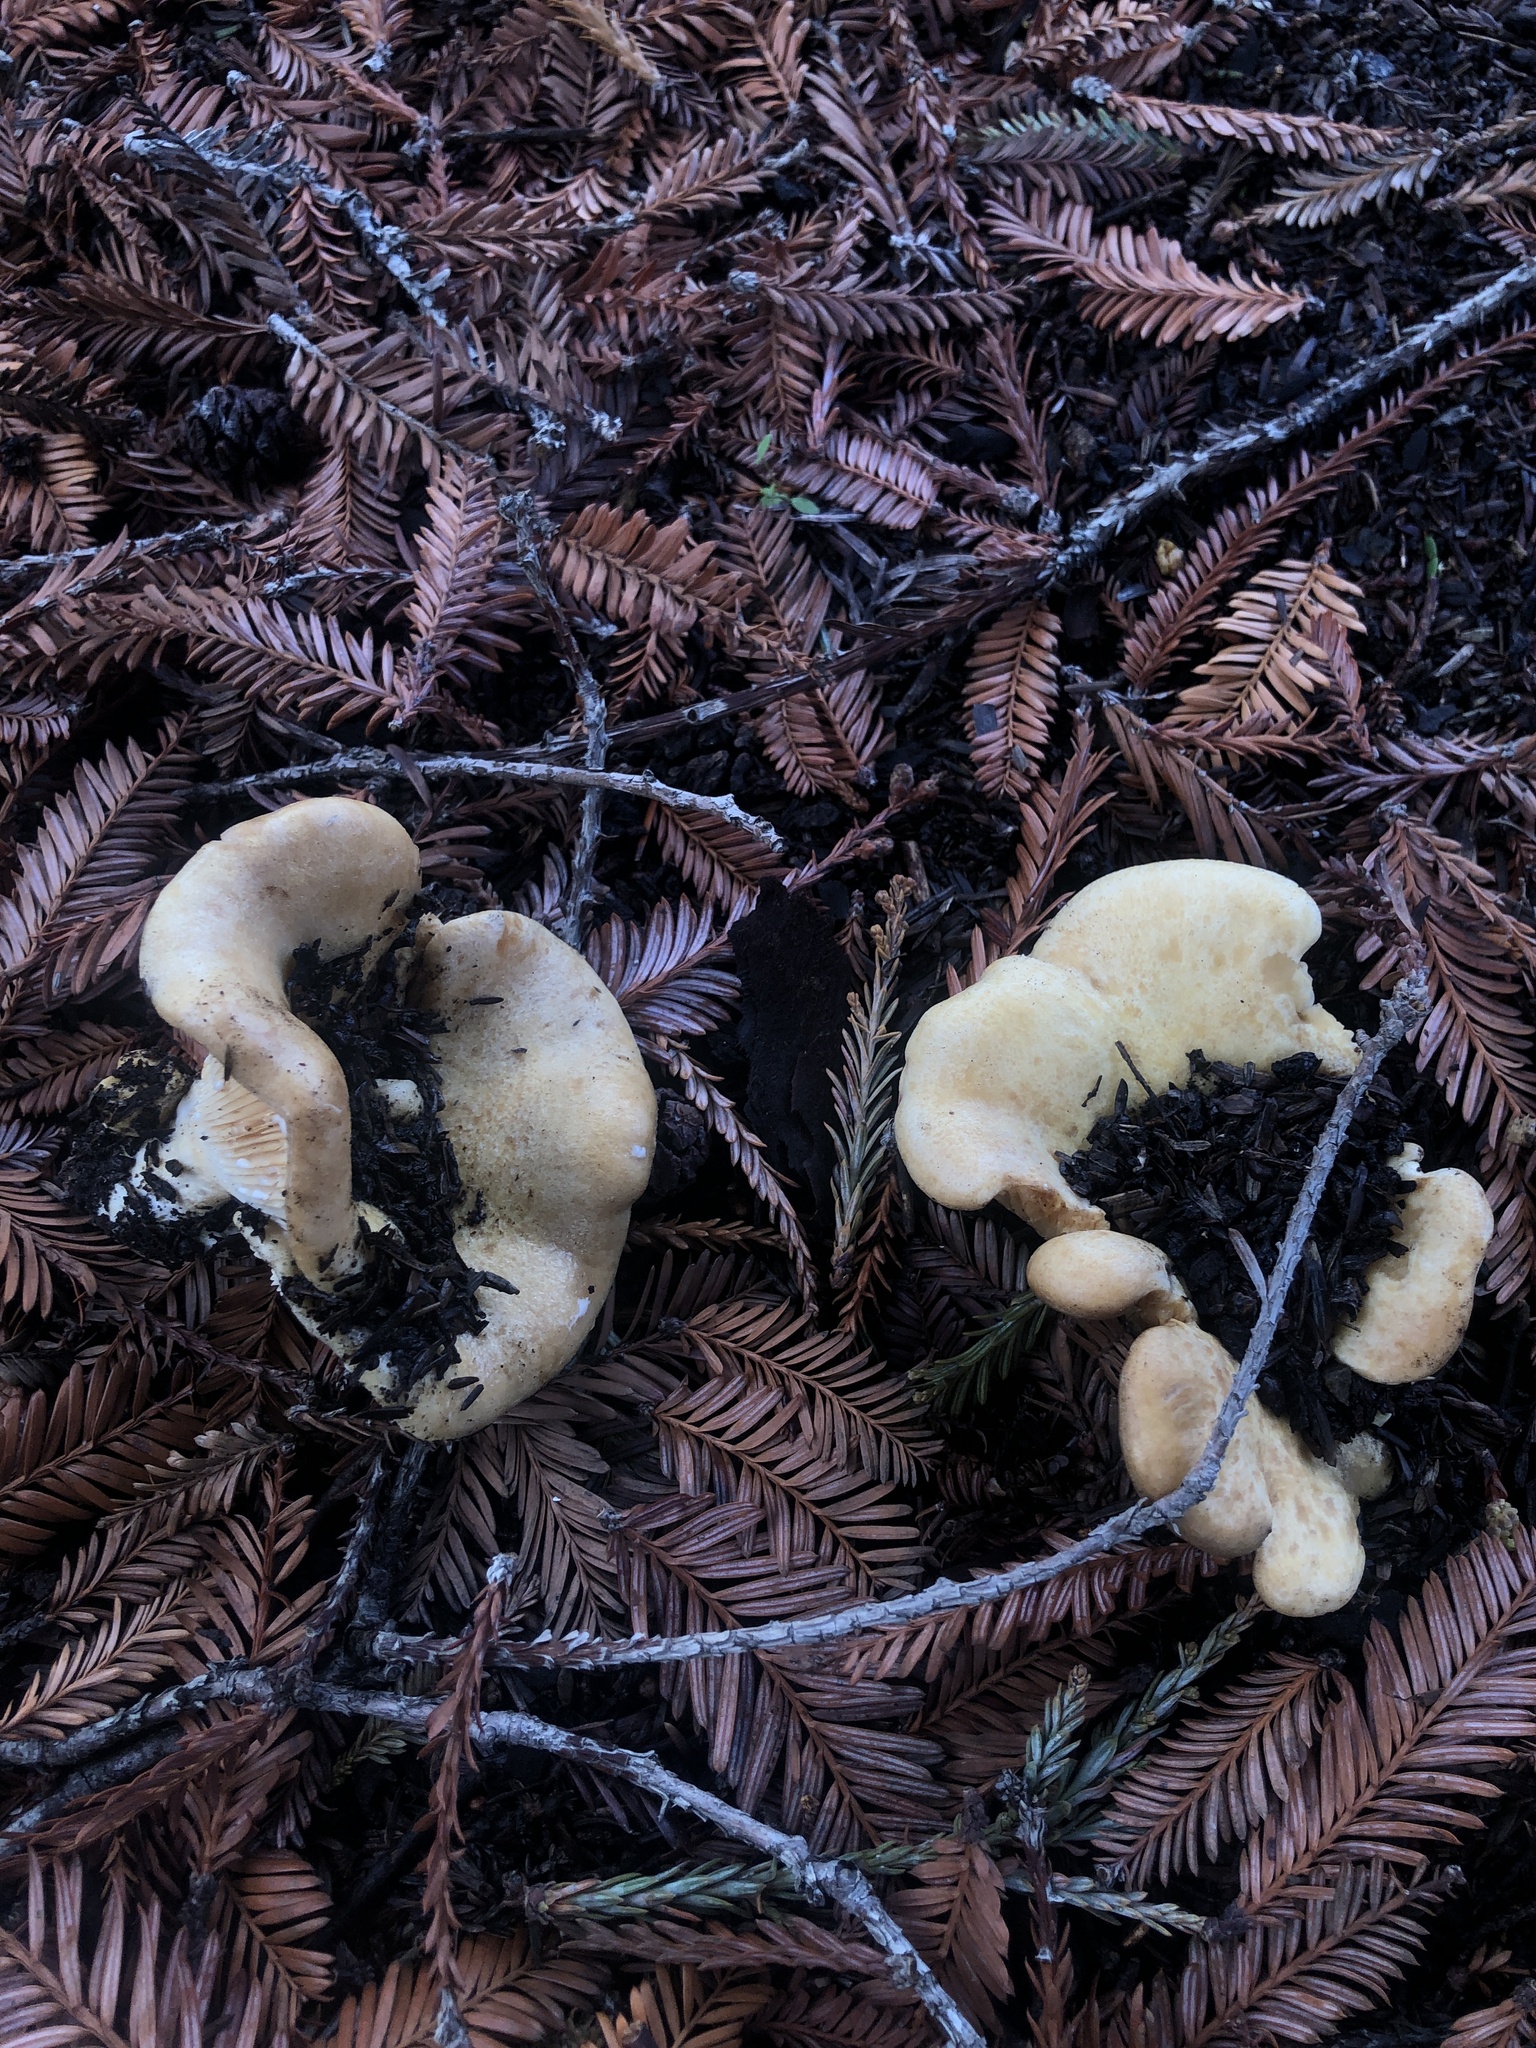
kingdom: Fungi
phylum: Basidiomycota
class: Agaricomycetes
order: Russulales
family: Russulaceae
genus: Lactarius
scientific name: Lactarius alnicola
